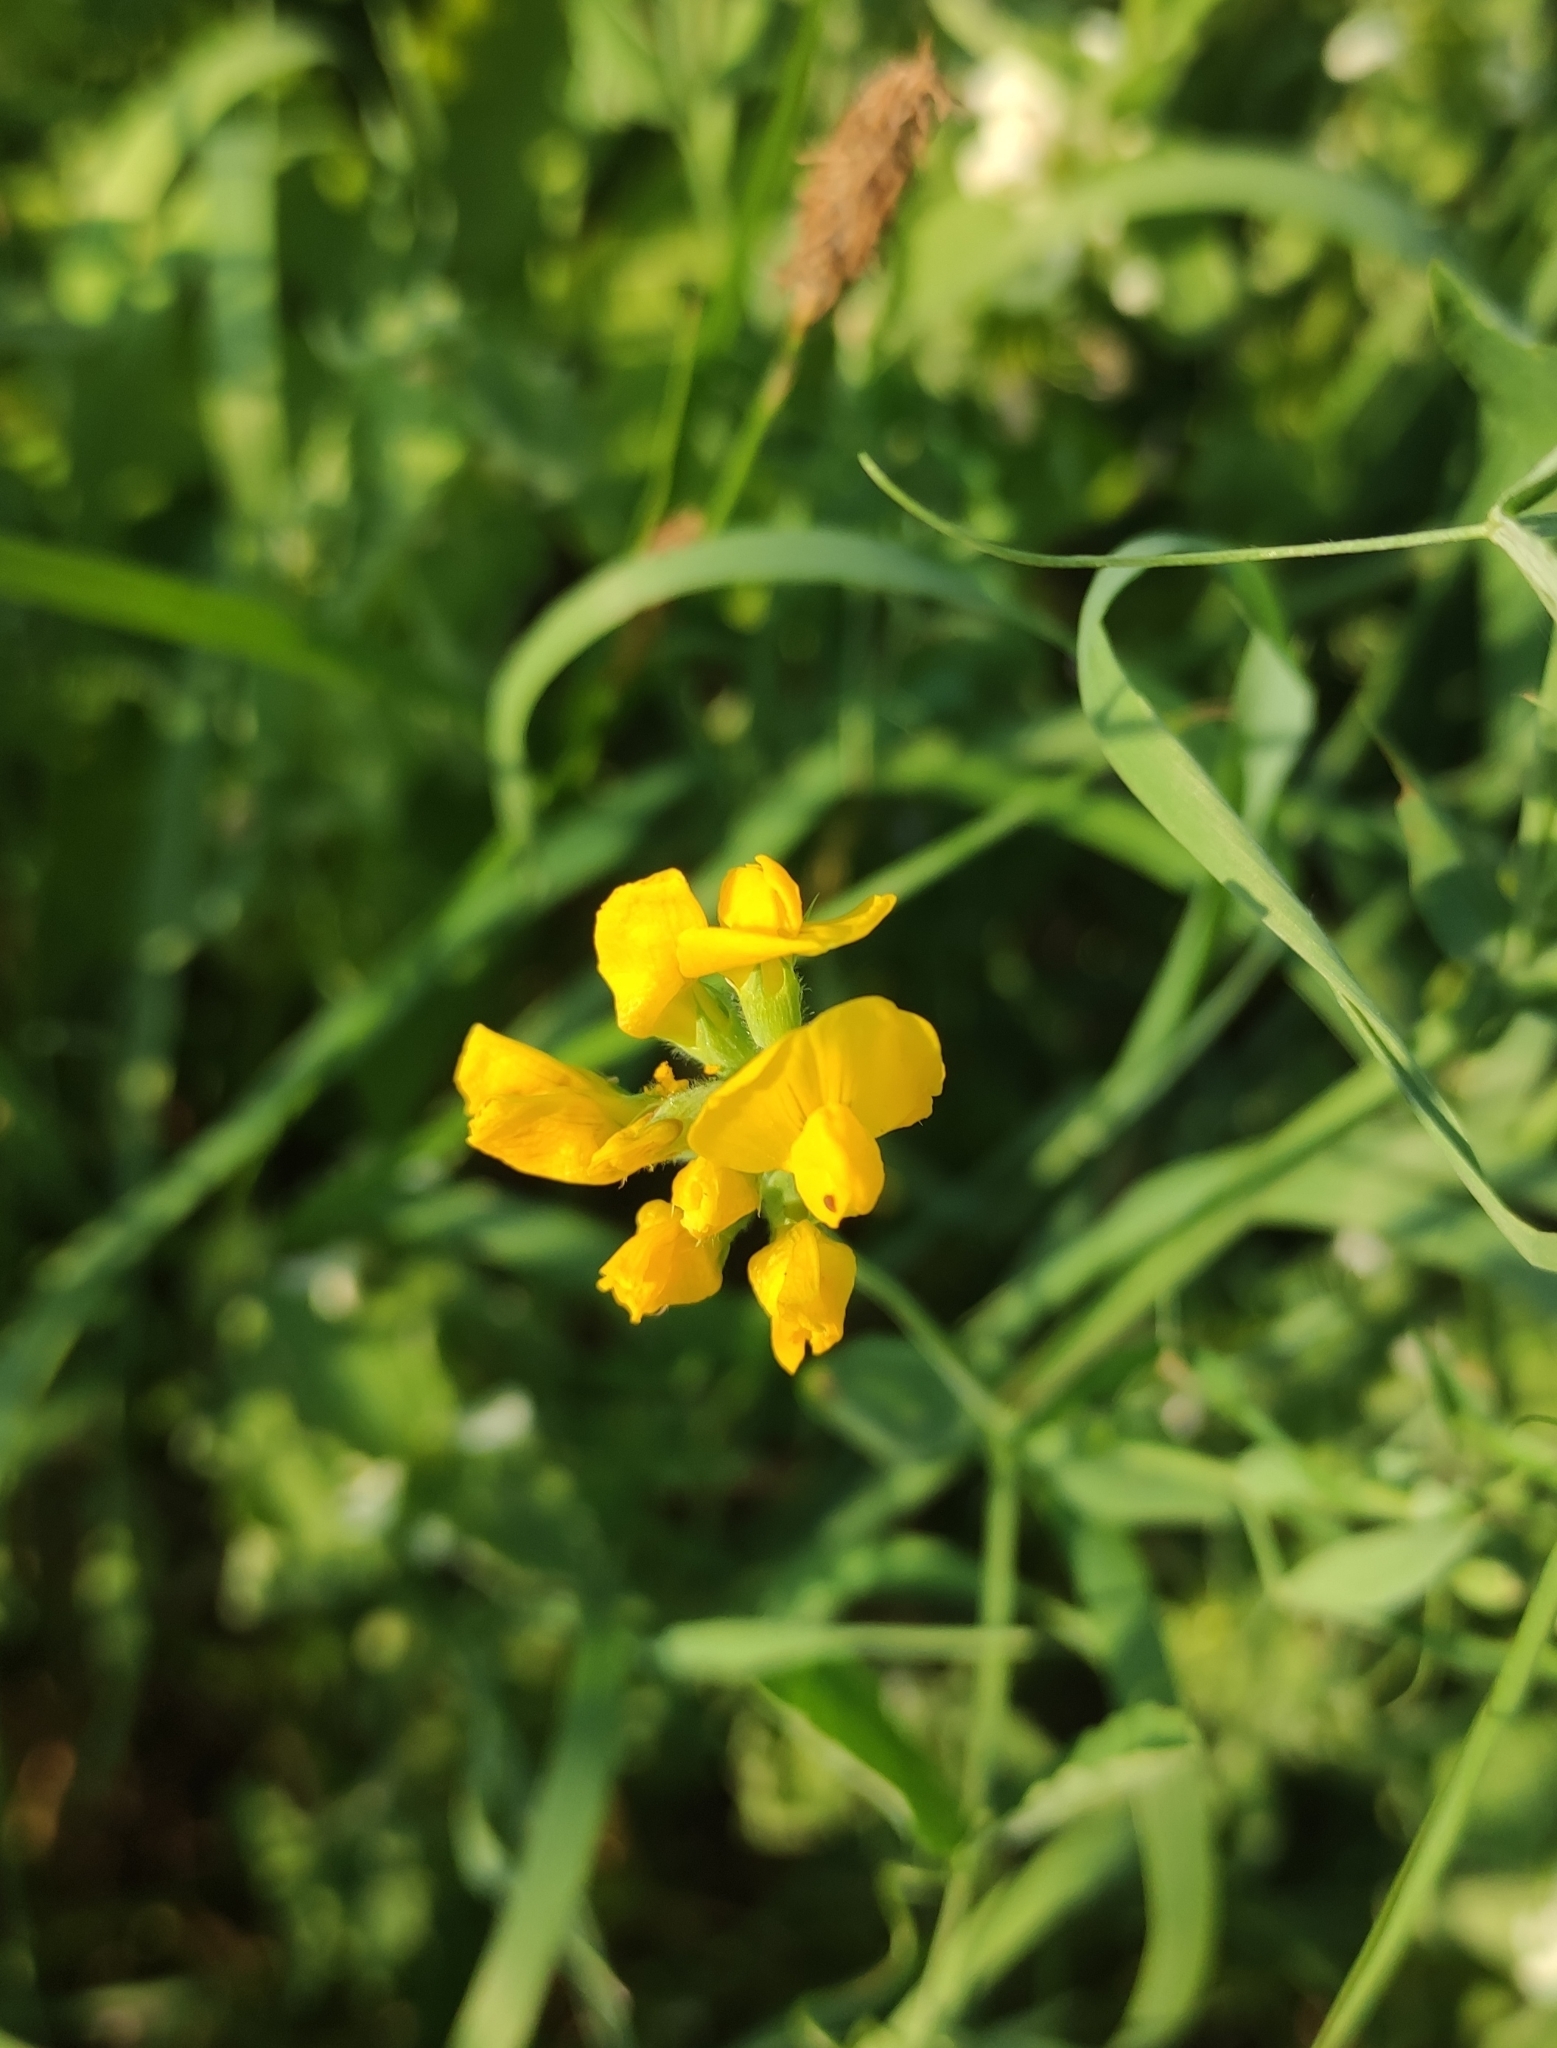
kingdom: Plantae
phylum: Tracheophyta
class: Magnoliopsida
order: Fabales
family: Fabaceae
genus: Lathyrus
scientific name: Lathyrus pratensis
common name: Meadow vetchling
